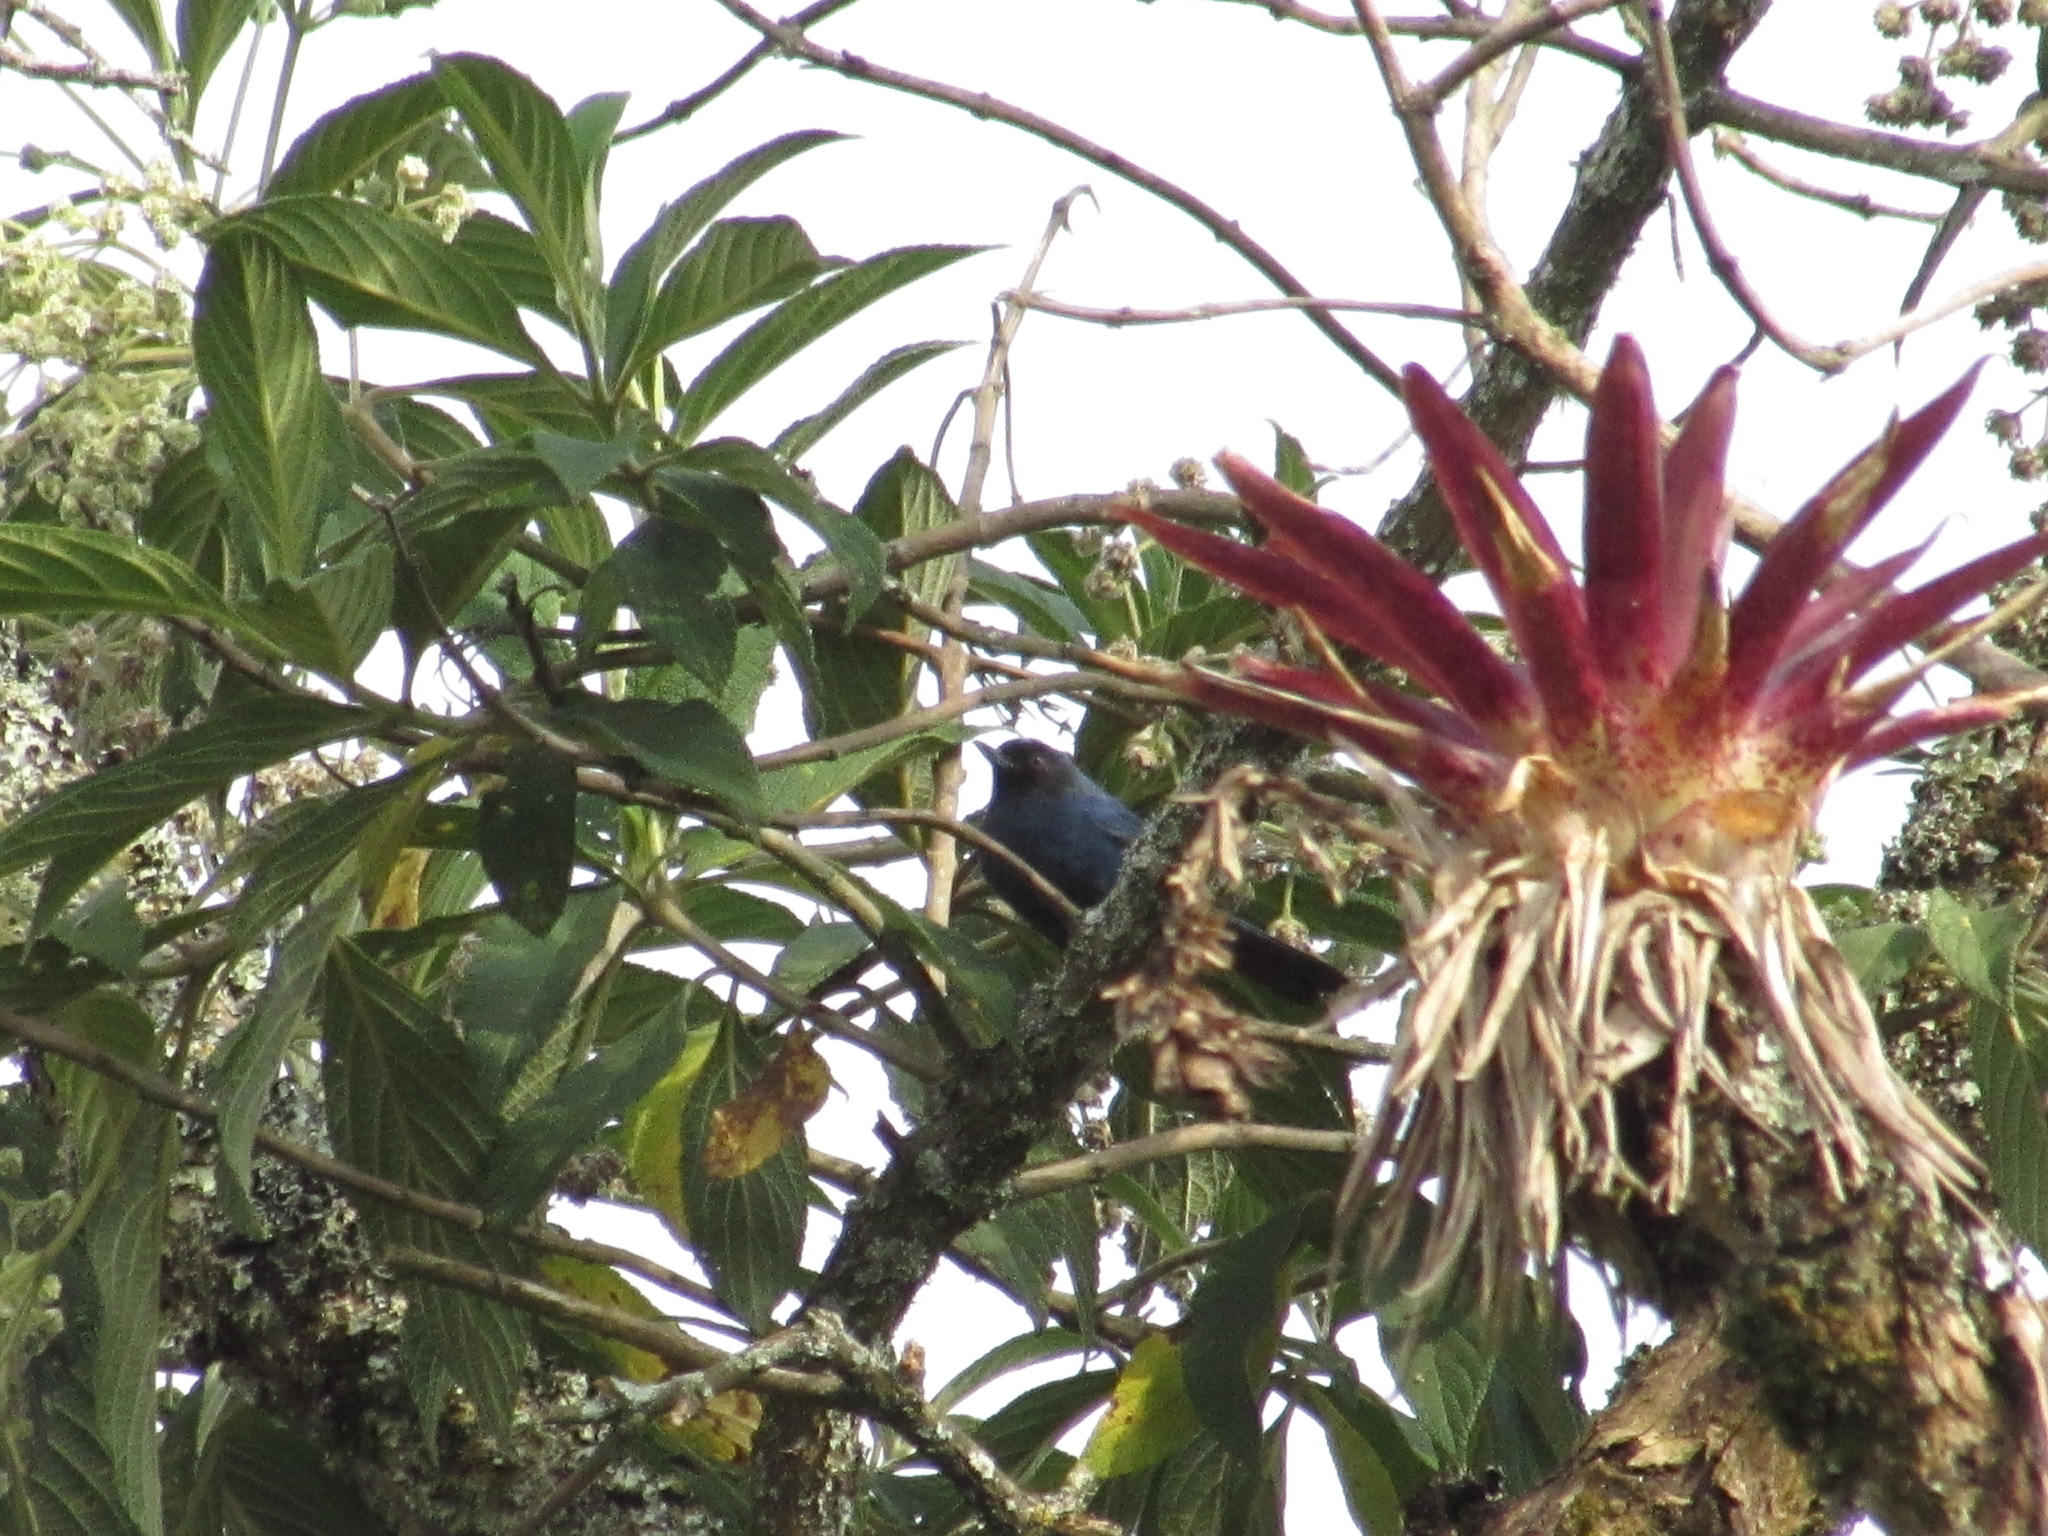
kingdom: Animalia
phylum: Chordata
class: Aves
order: Passeriformes
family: Thraupidae
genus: Diglossa
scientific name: Diglossa cyanea
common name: Masked flowerpiercer
